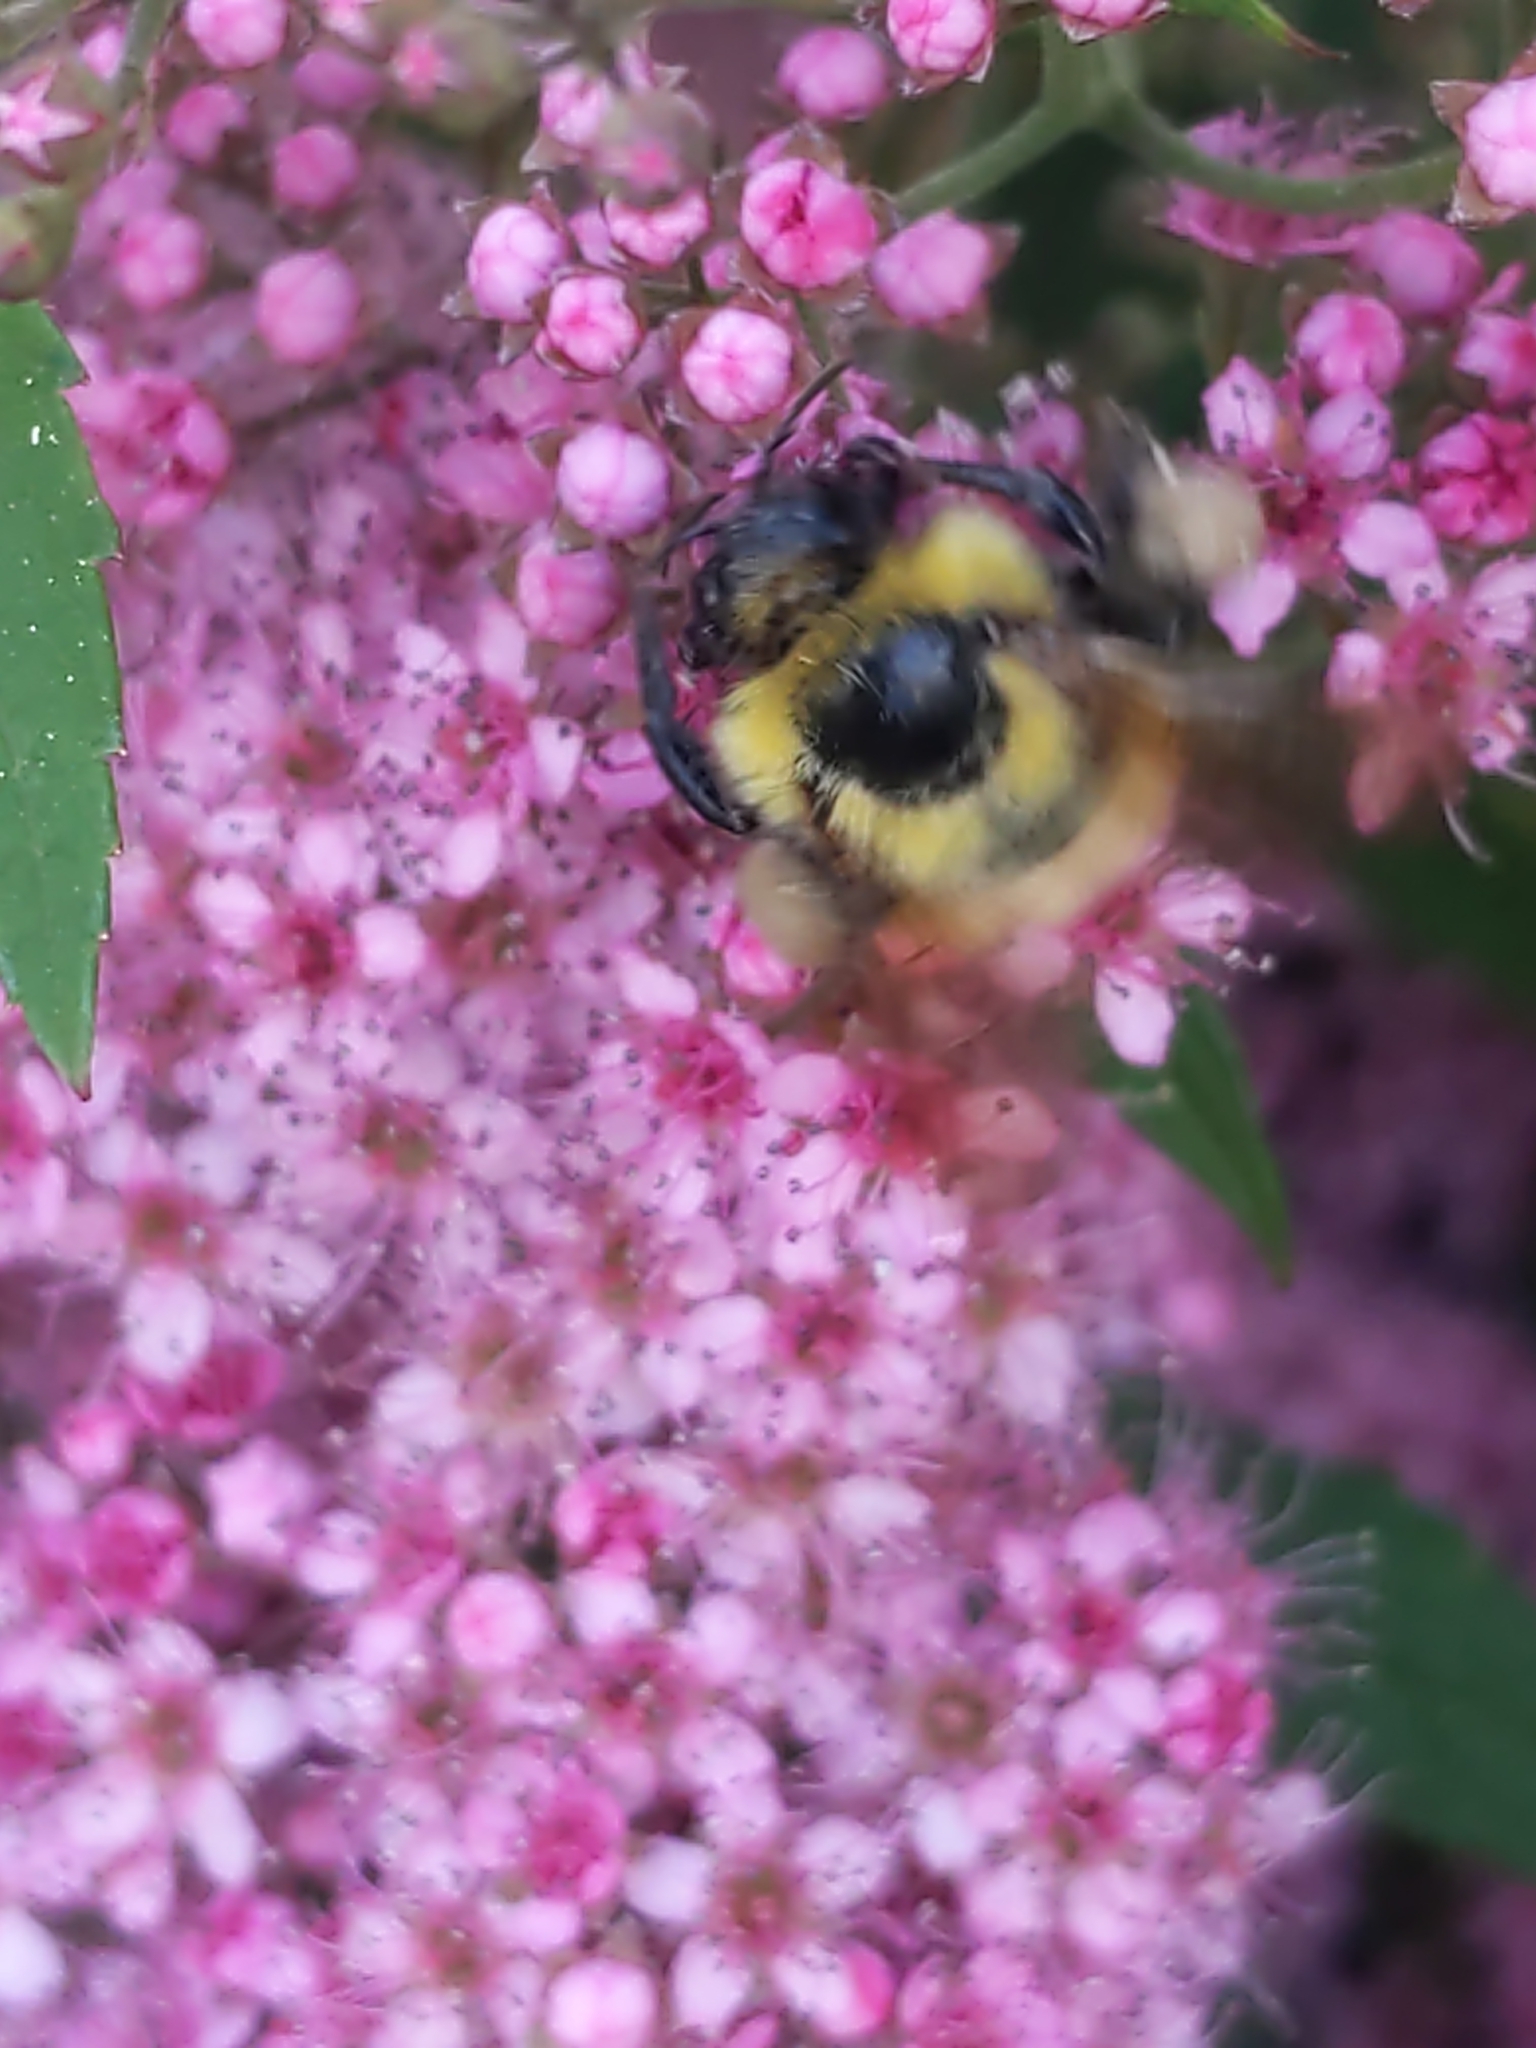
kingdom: Animalia
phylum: Arthropoda
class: Insecta
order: Hymenoptera
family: Apidae
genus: Bombus
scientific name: Bombus perplexus
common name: Confusing bumble bee
